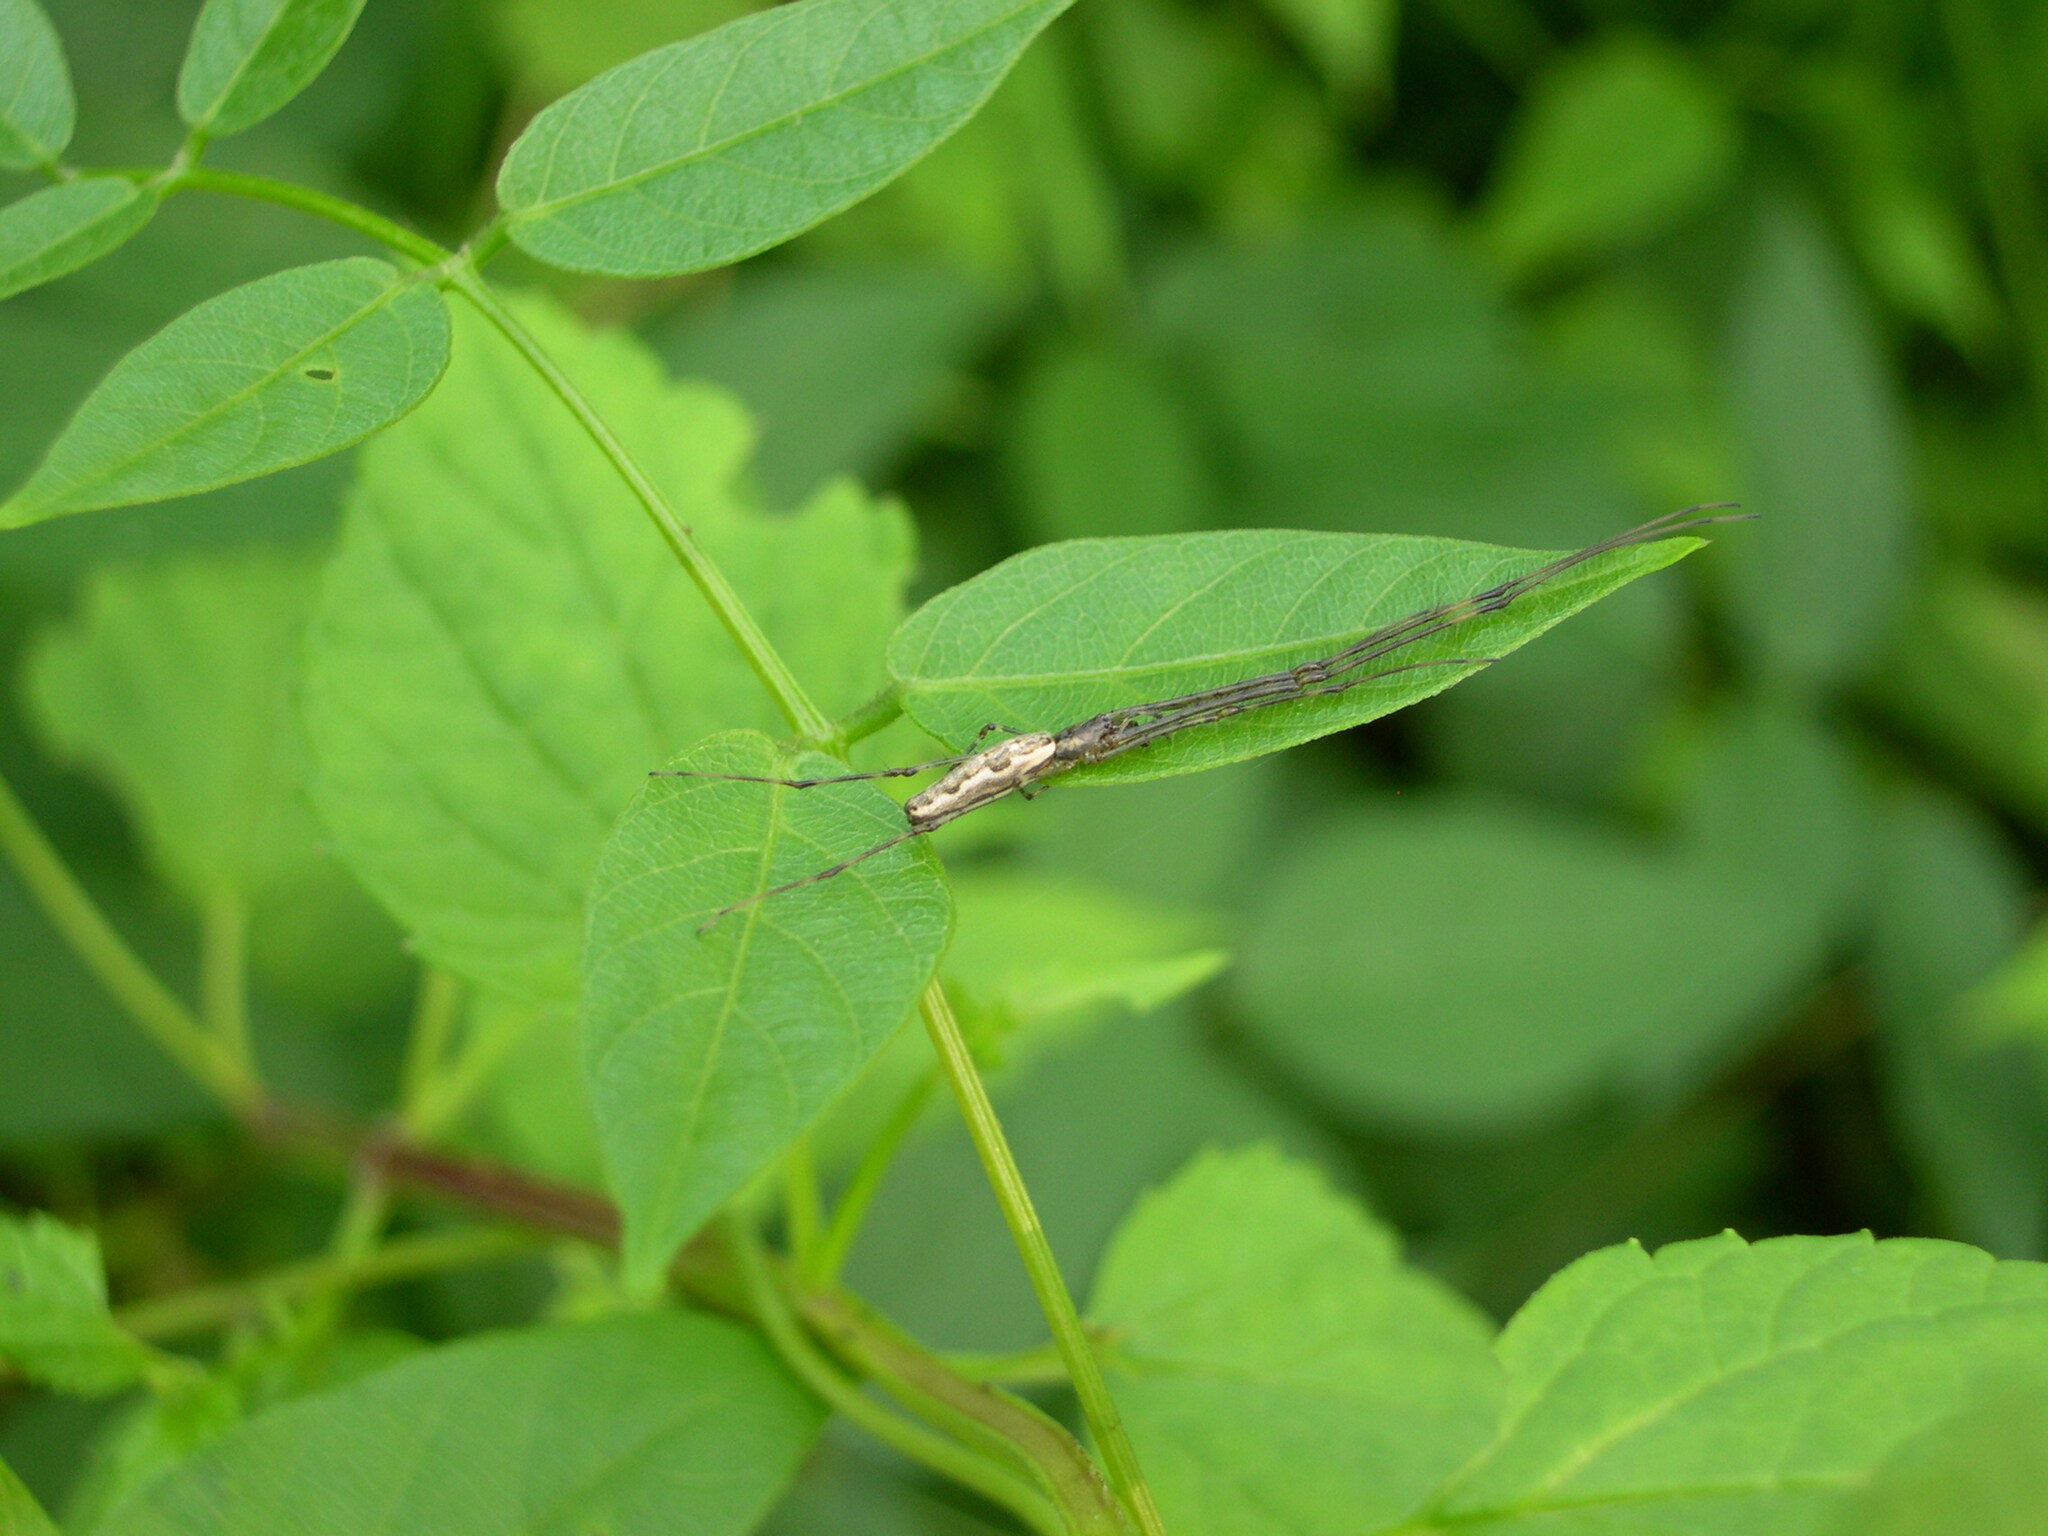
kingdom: Animalia
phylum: Arthropoda
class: Arachnida
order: Araneae
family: Tetragnathidae
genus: Tetragnatha
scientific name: Tetragnatha elongata
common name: Longjawed orb weavers
